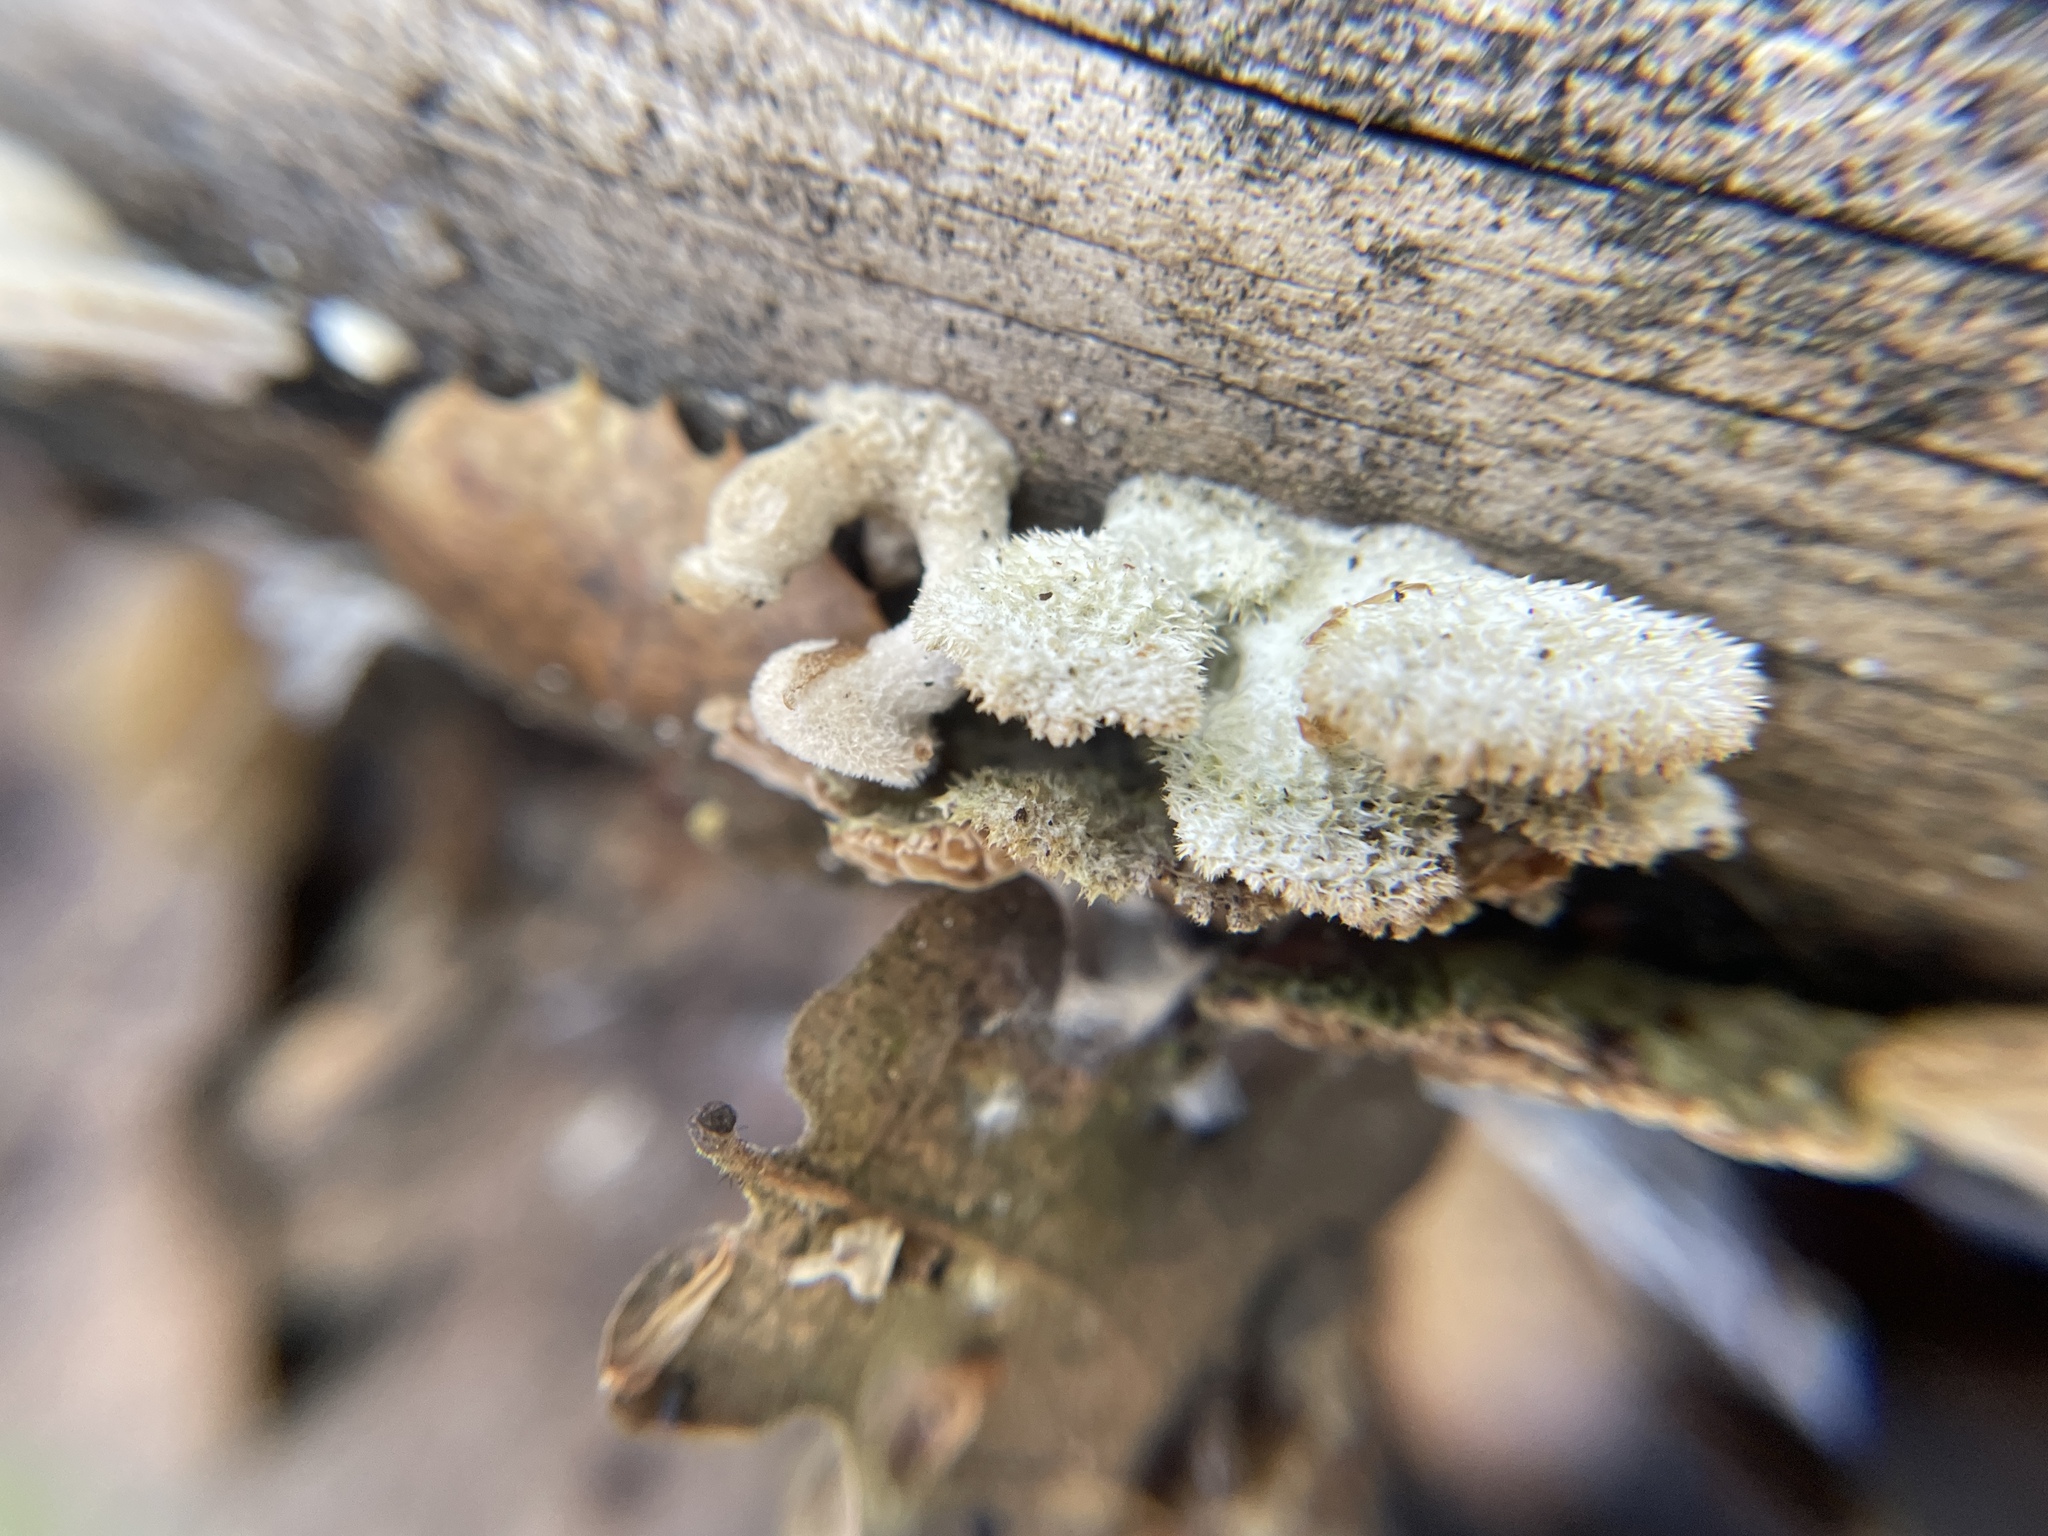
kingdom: Fungi
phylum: Basidiomycota
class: Agaricomycetes
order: Agaricales
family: Schizophyllaceae
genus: Schizophyllum
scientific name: Schizophyllum commune
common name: Common porecrust
